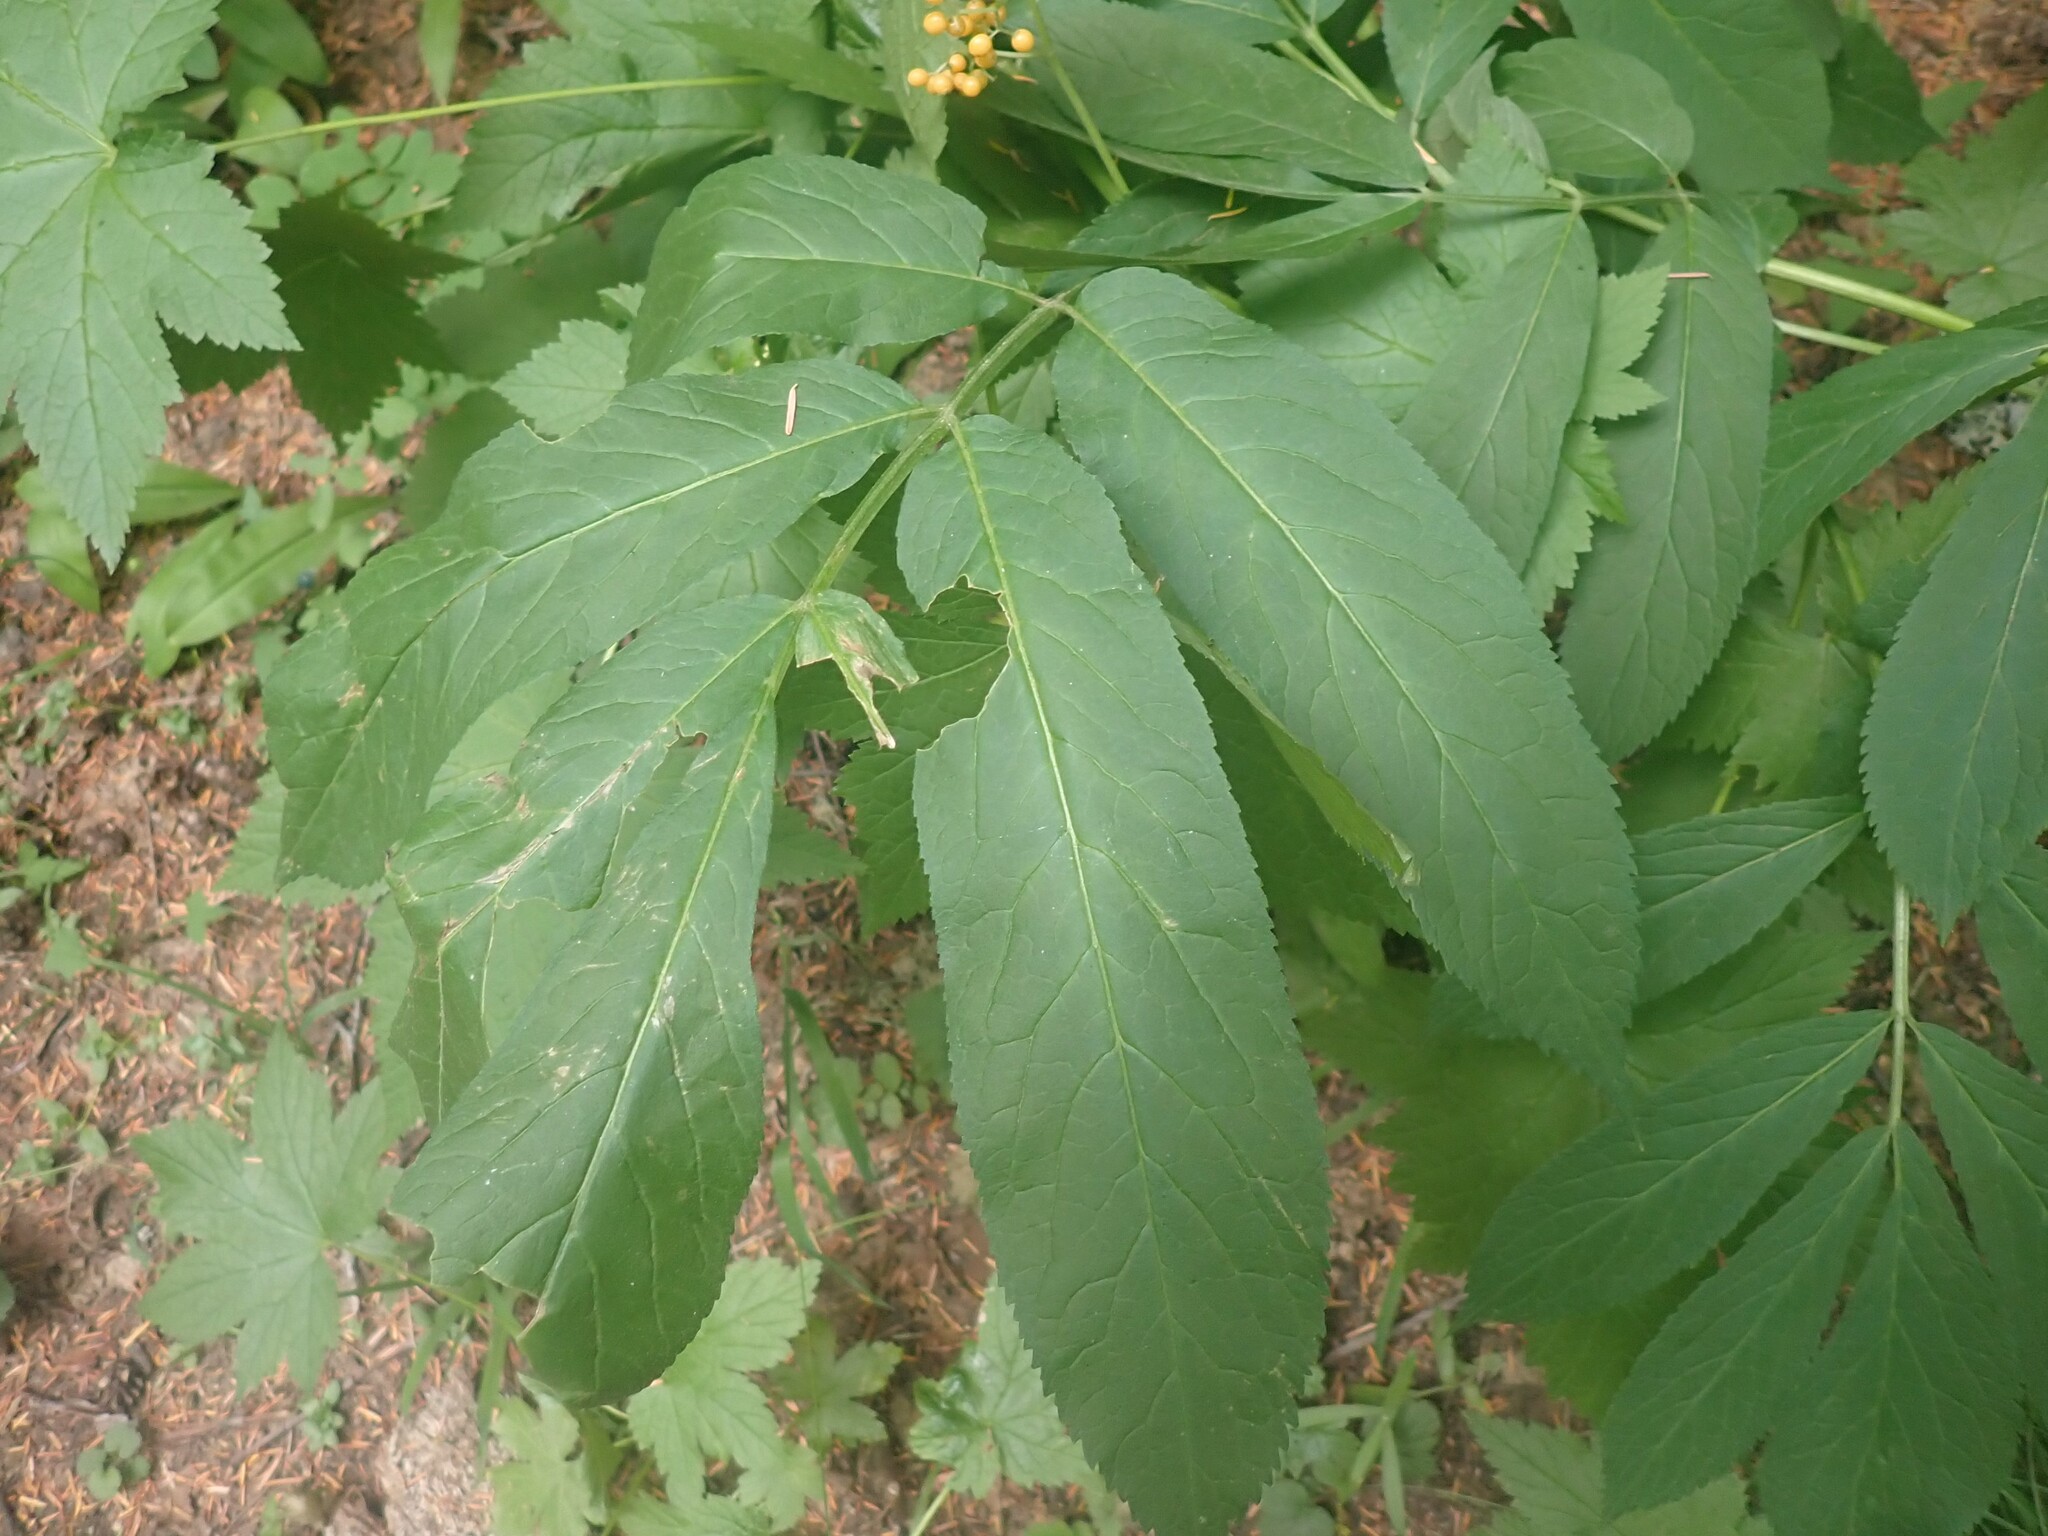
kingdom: Plantae
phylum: Tracheophyta
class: Magnoliopsida
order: Dipsacales
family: Viburnaceae
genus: Sambucus
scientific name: Sambucus racemosa
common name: Red-berried elder
